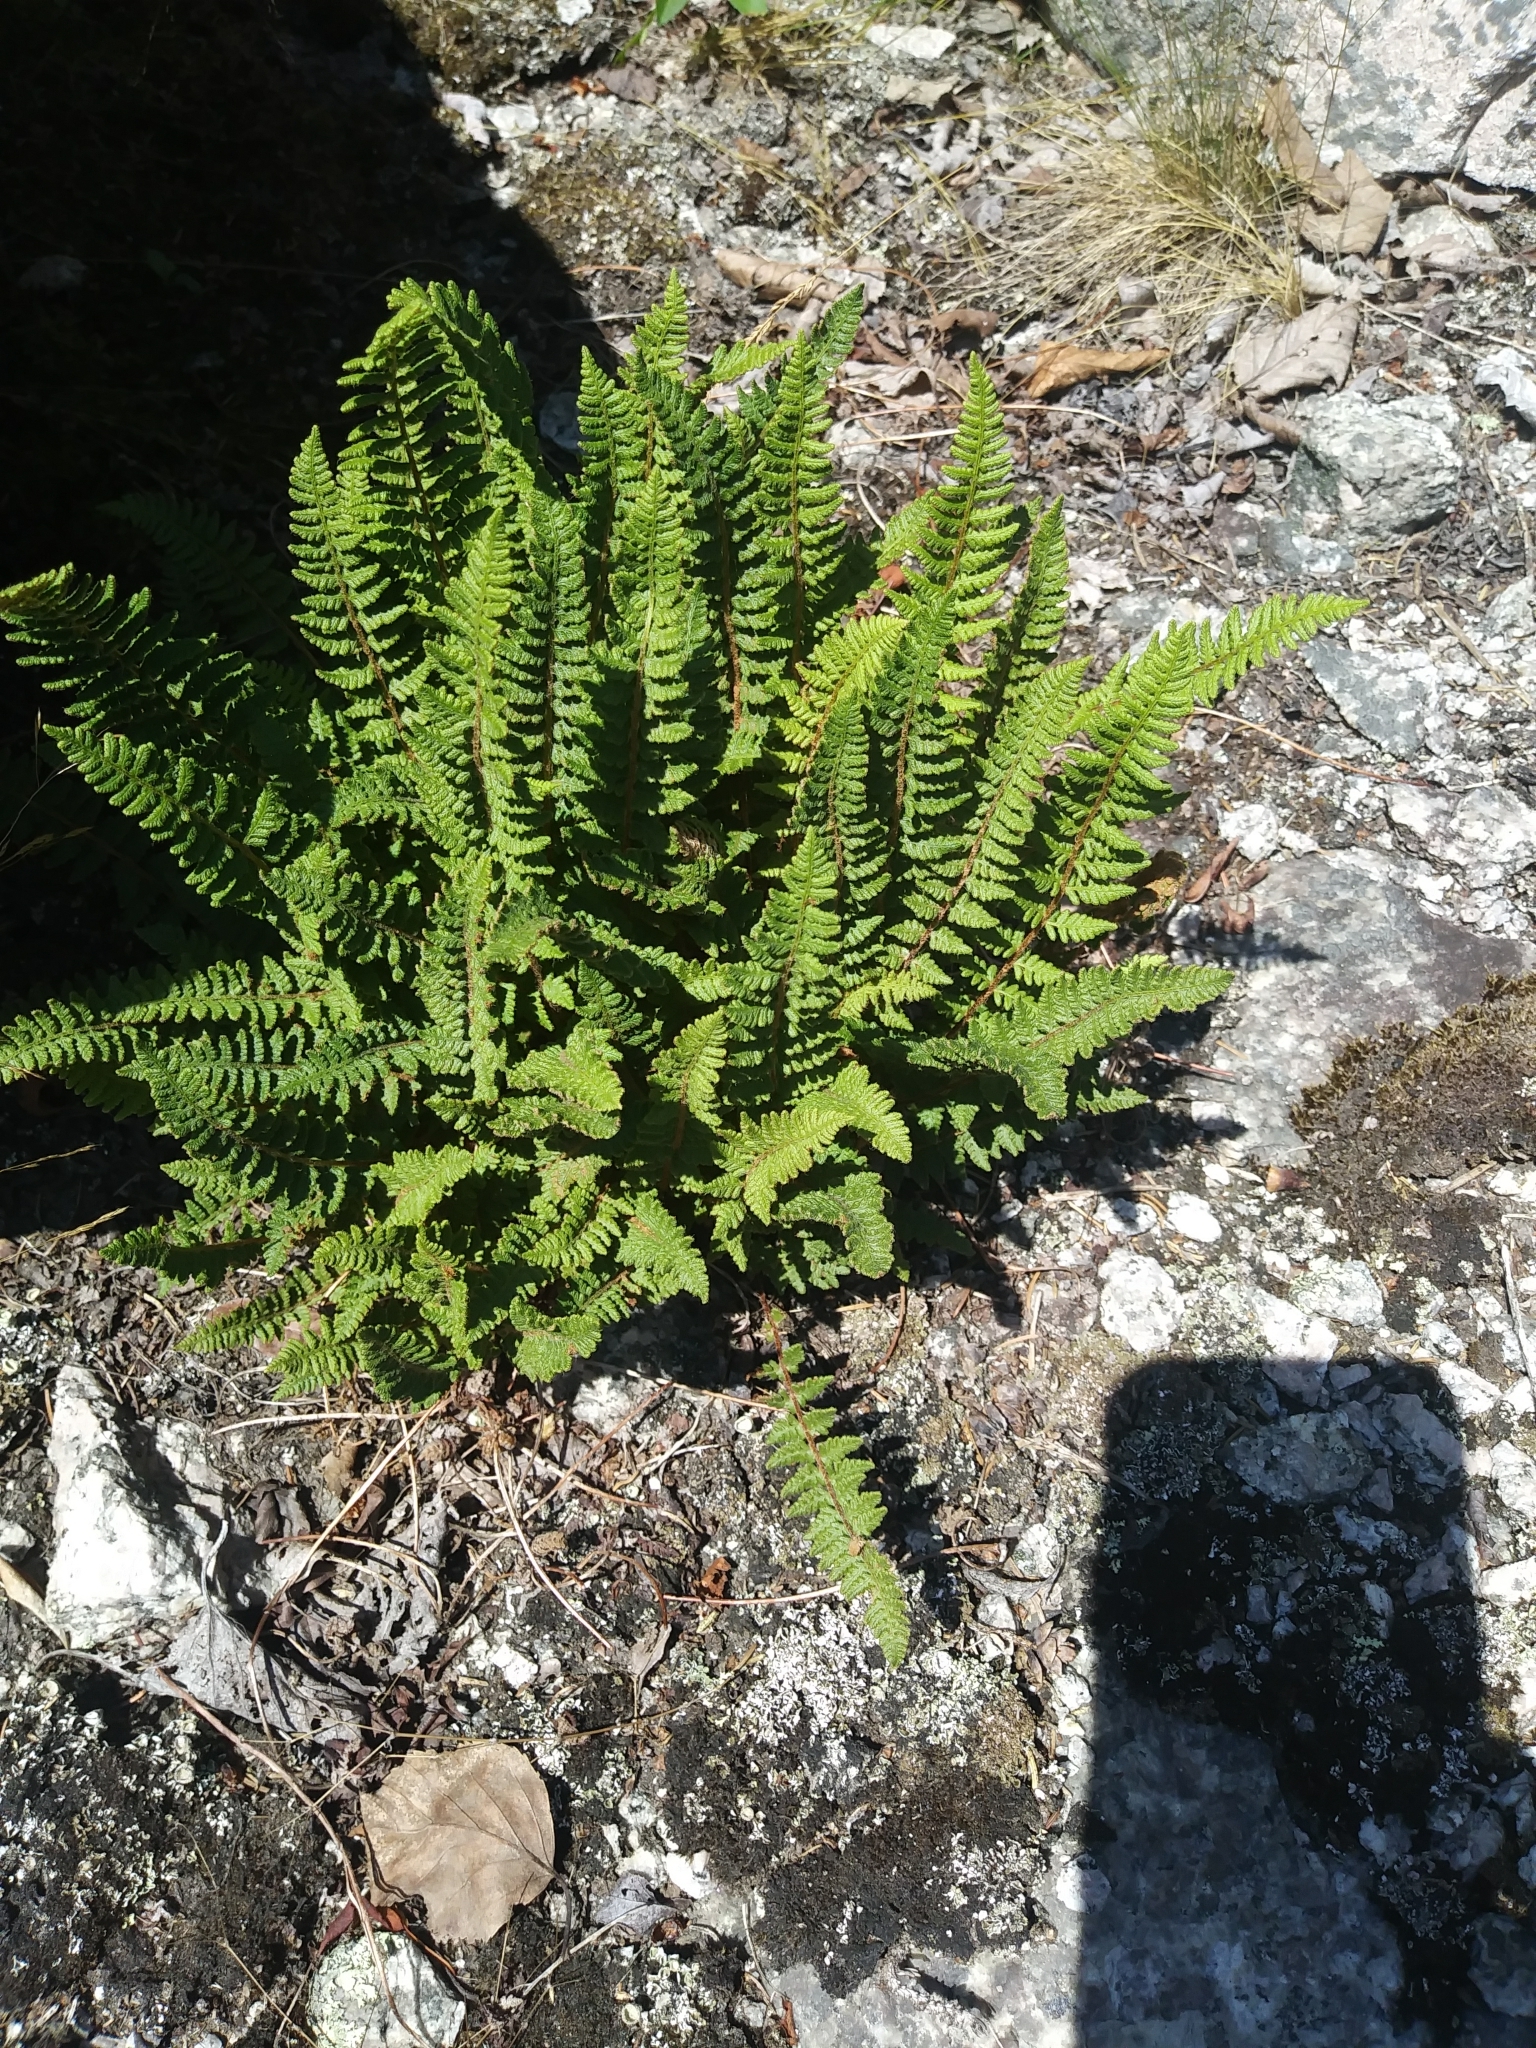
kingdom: Plantae
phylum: Tracheophyta
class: Polypodiopsida
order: Polypodiales
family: Woodsiaceae
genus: Woodsia
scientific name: Woodsia ilvensis
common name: Fragrant woodsia
